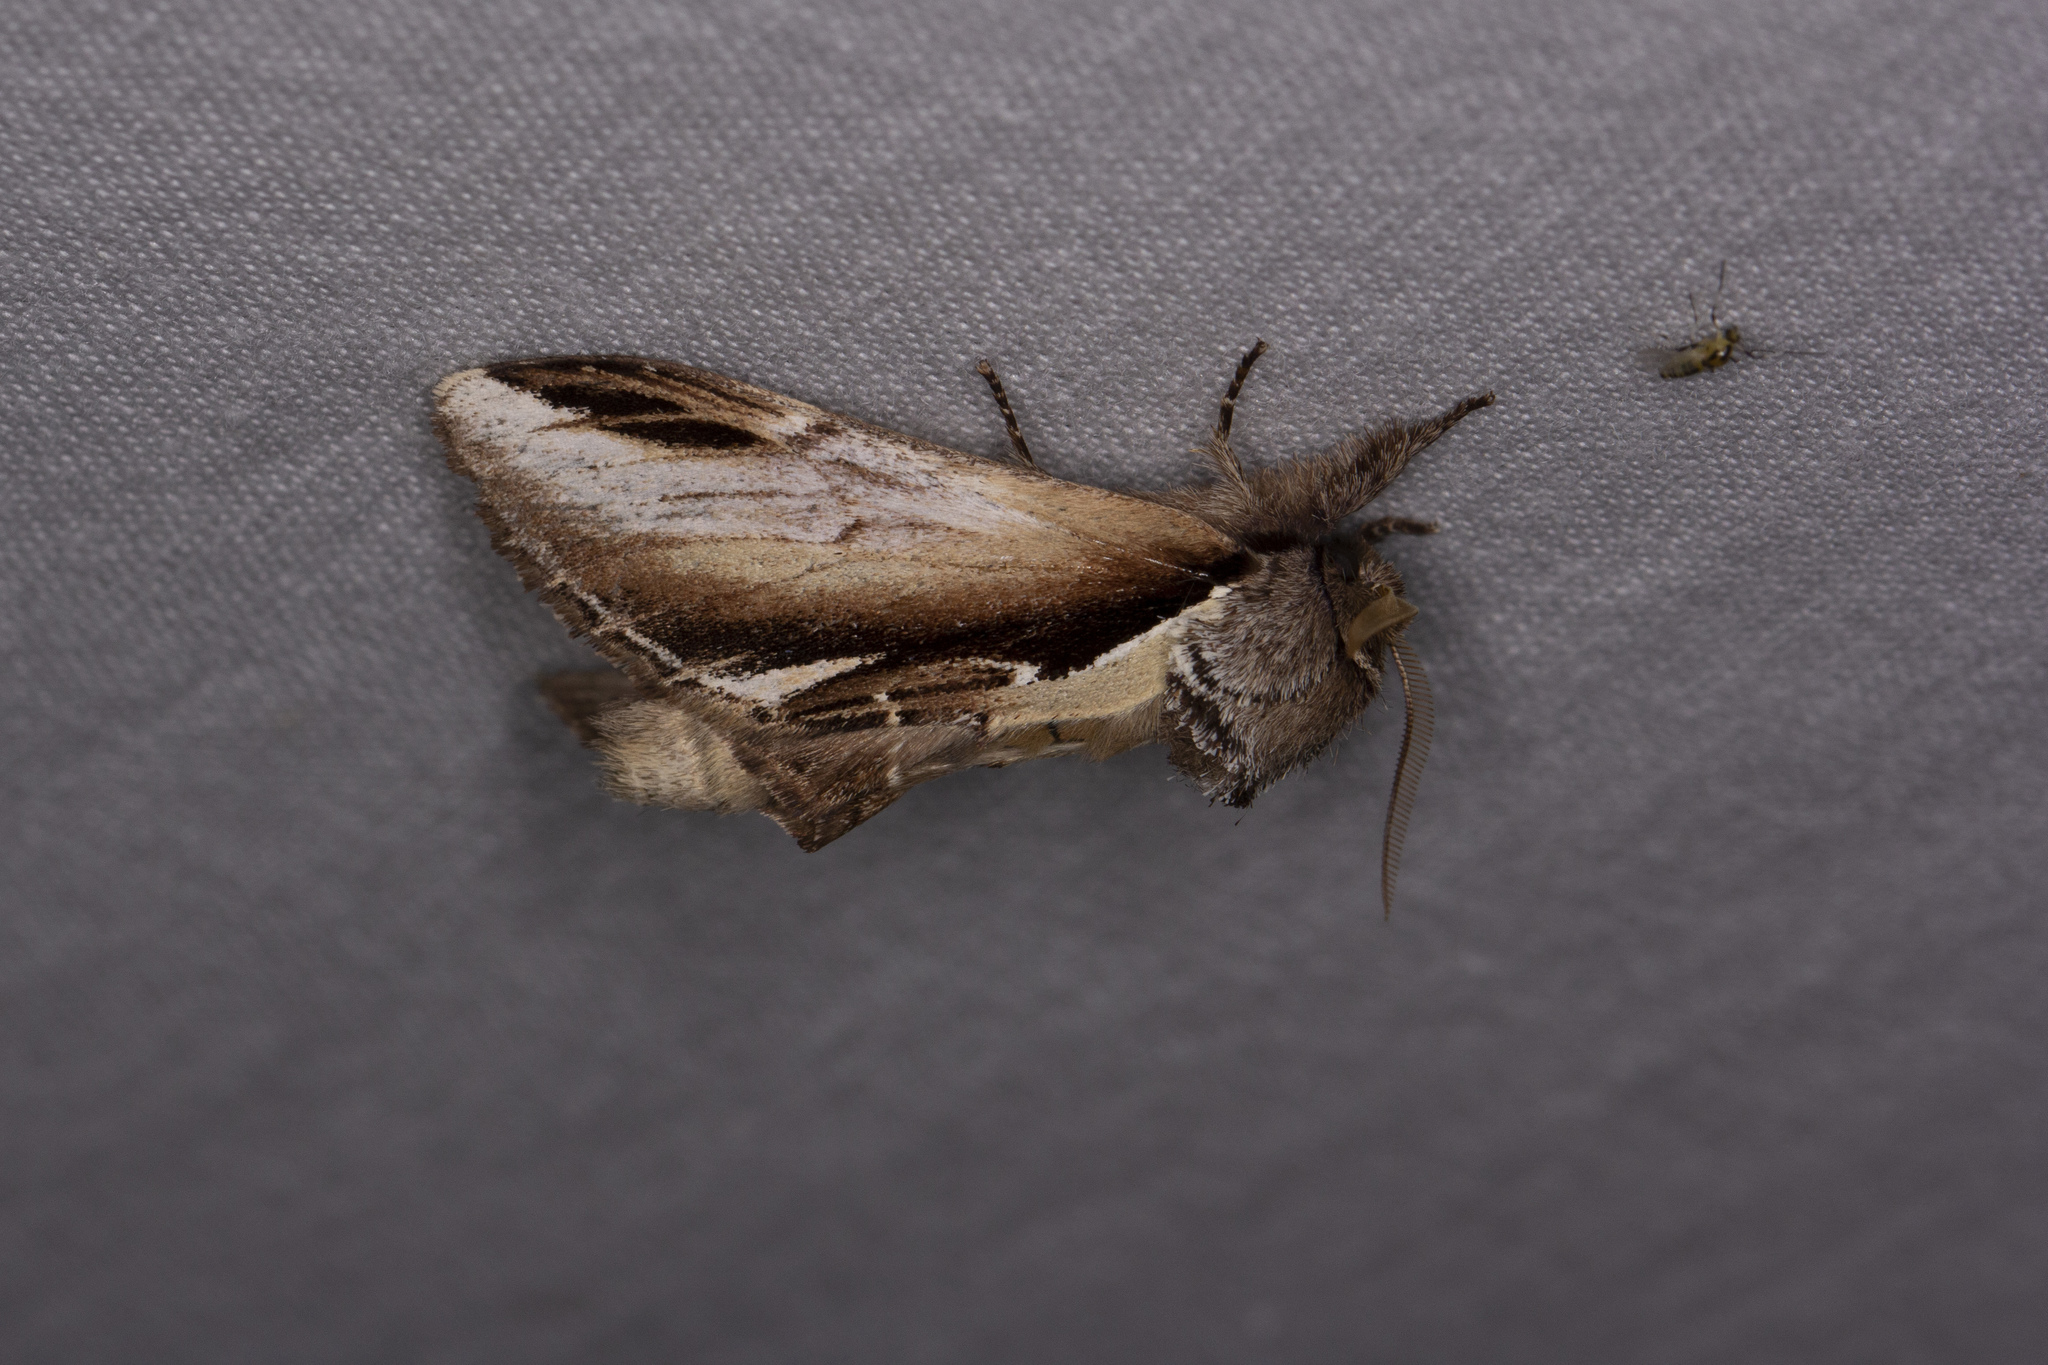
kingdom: Animalia
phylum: Arthropoda
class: Insecta
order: Lepidoptera
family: Notodontidae
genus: Pheosia
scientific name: Pheosia gnoma
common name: Lesser swallow prominent
